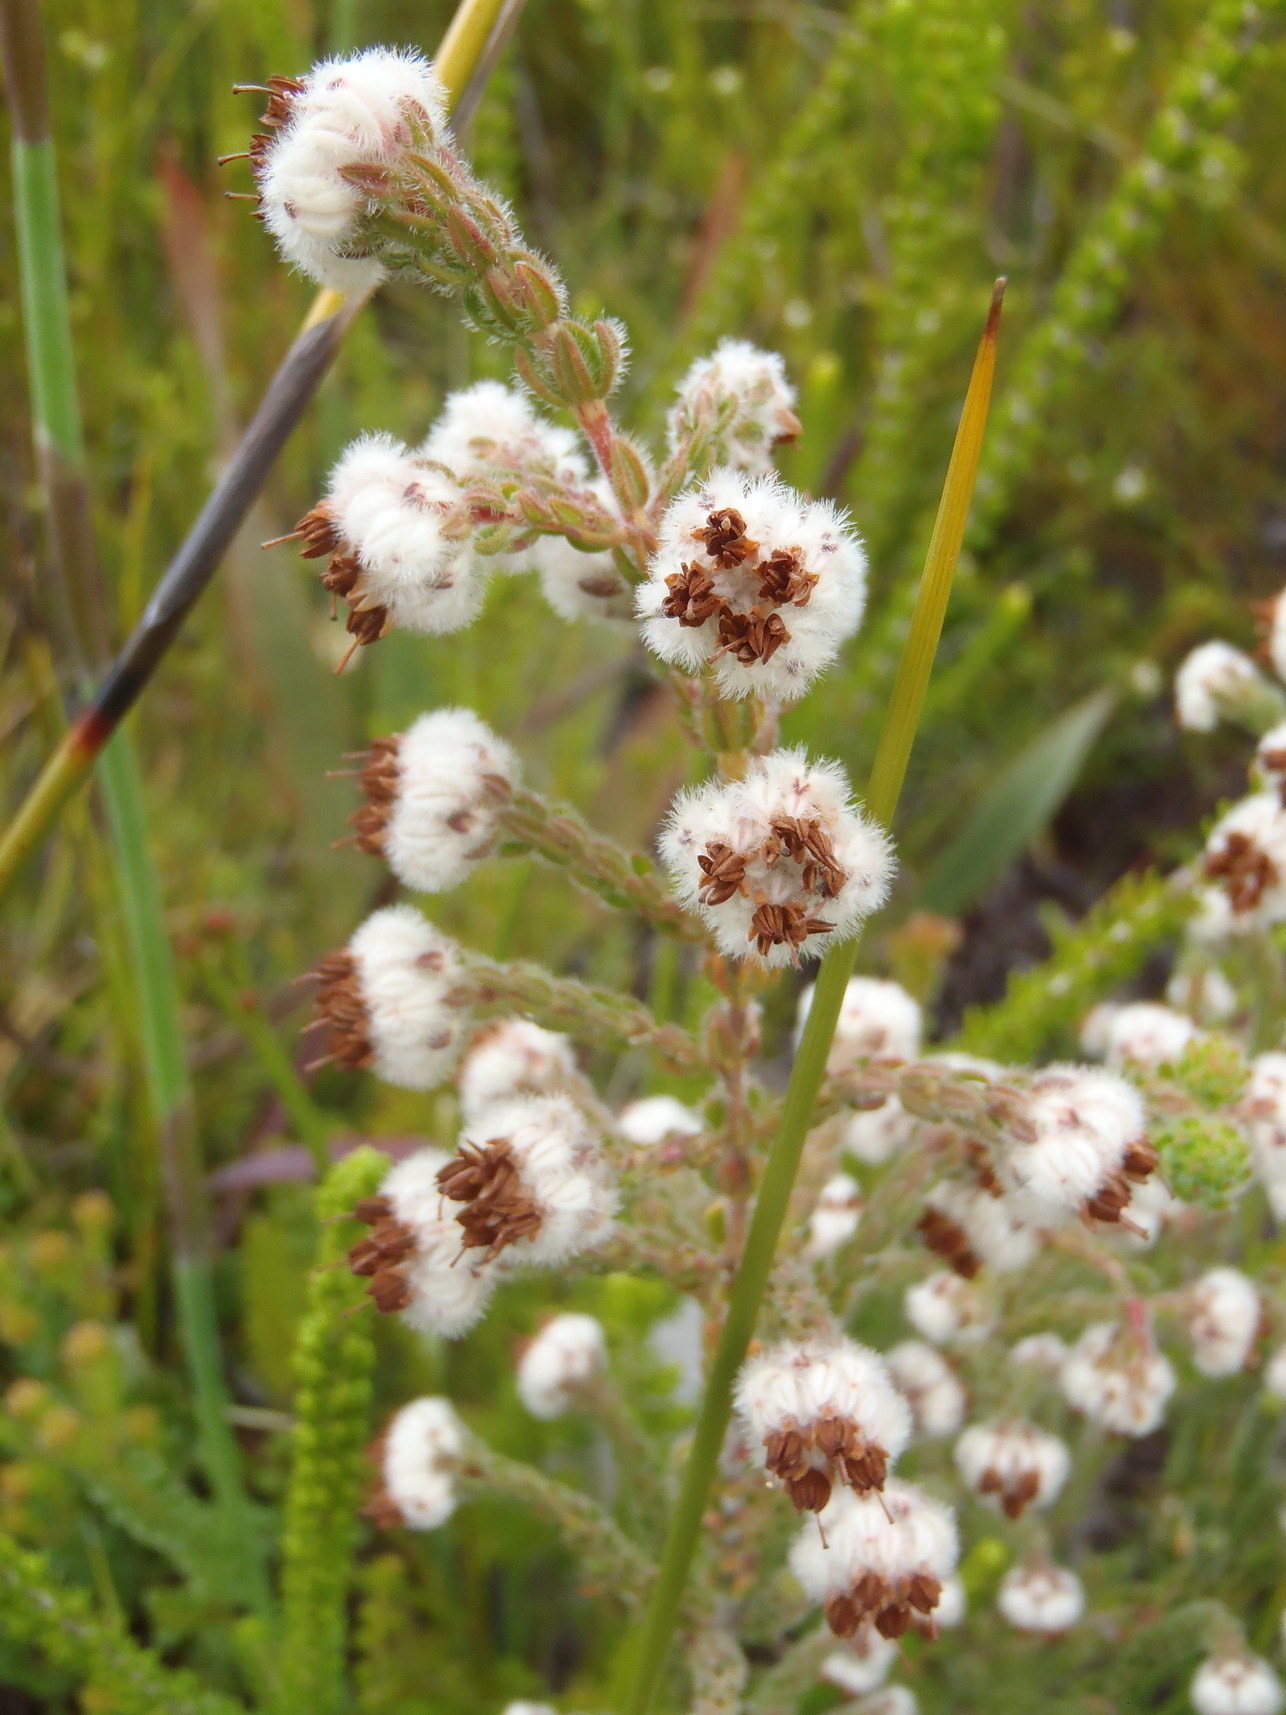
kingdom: Plantae
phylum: Tracheophyta
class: Magnoliopsida
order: Ericales
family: Ericaceae
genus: Erica
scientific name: Erica flaccida
